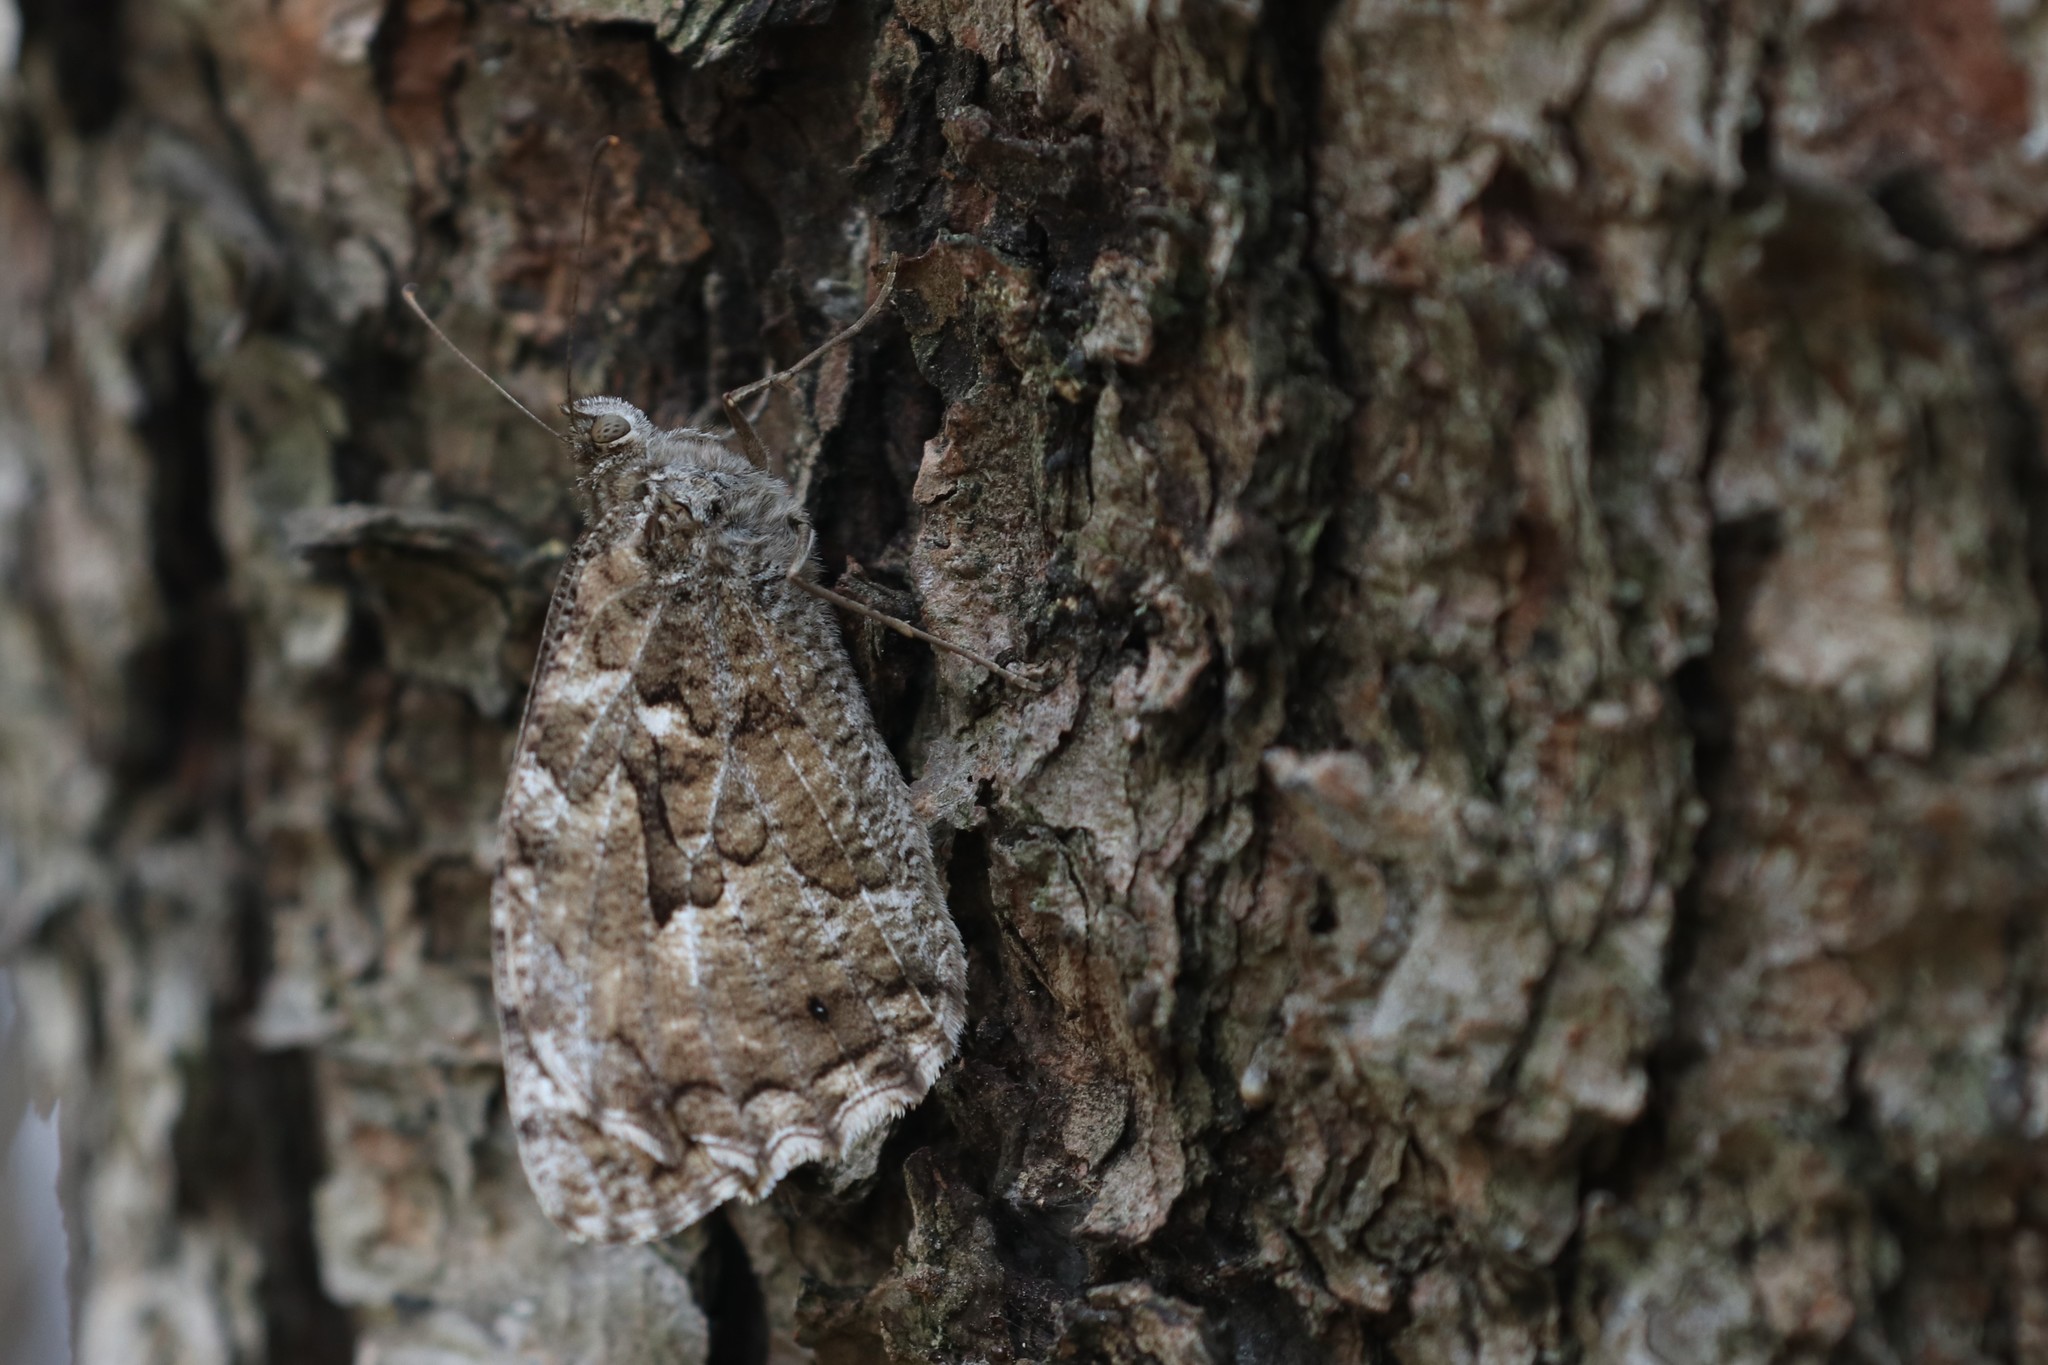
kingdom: Animalia
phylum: Arthropoda
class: Insecta
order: Lepidoptera
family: Nymphalidae
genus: Hipparchia
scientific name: Hipparchia semele
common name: Grayling
